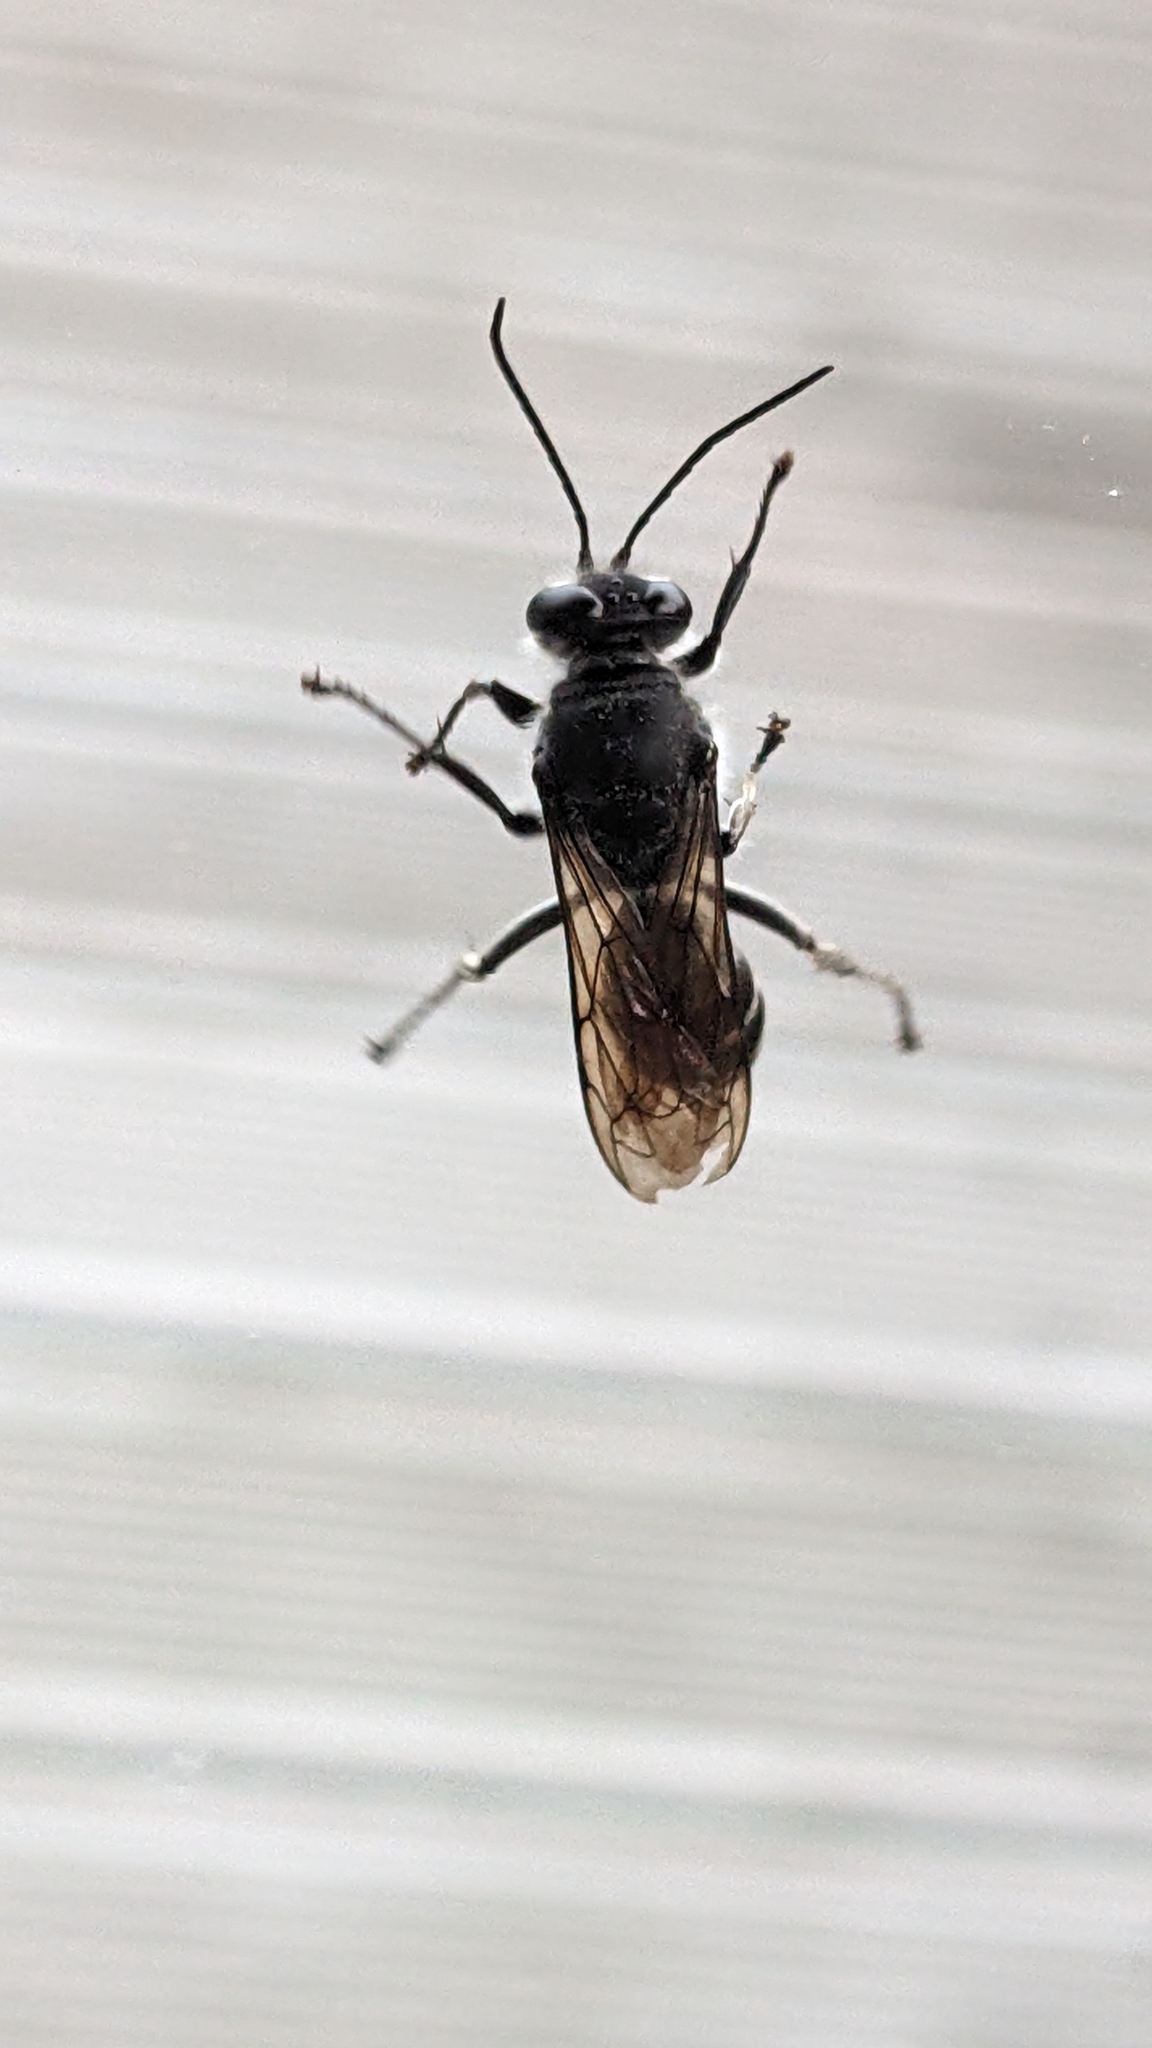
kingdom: Animalia
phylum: Arthropoda
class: Insecta
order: Hymenoptera
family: Crabronidae
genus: Pison
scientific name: Pison spinolae
